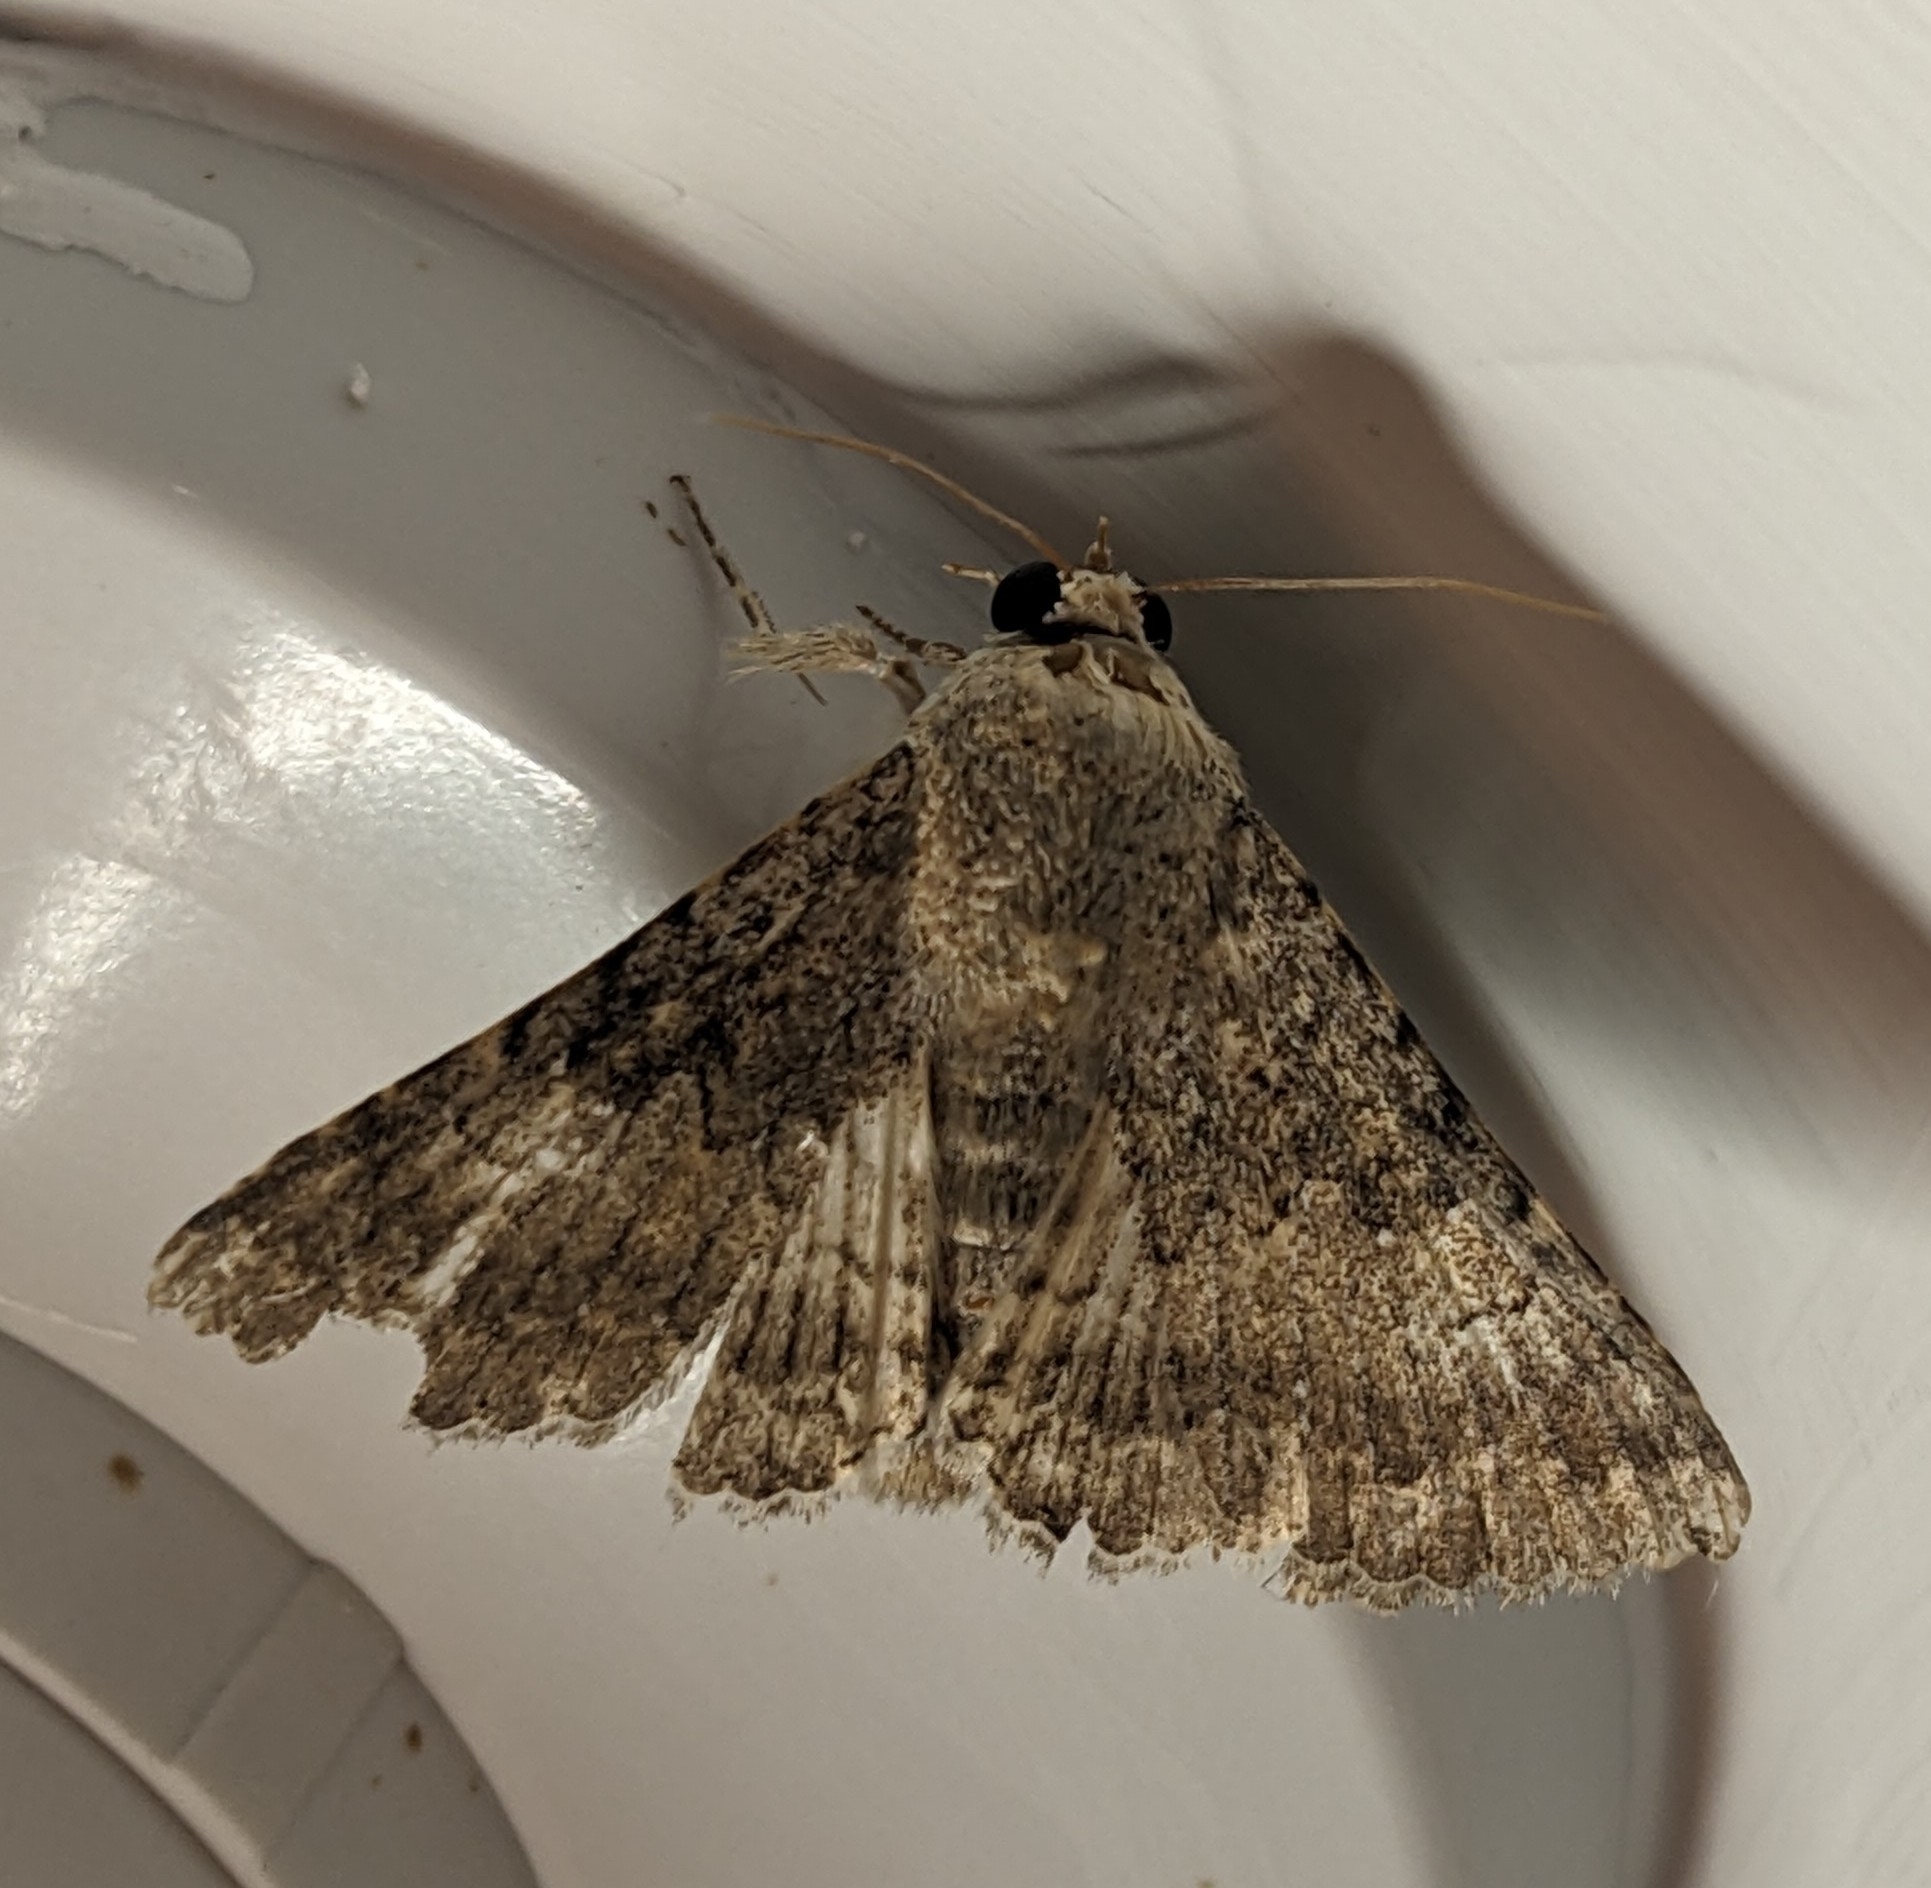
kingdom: Animalia
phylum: Arthropoda
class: Insecta
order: Lepidoptera
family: Erebidae
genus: Pandesma
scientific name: Pandesma robusta
